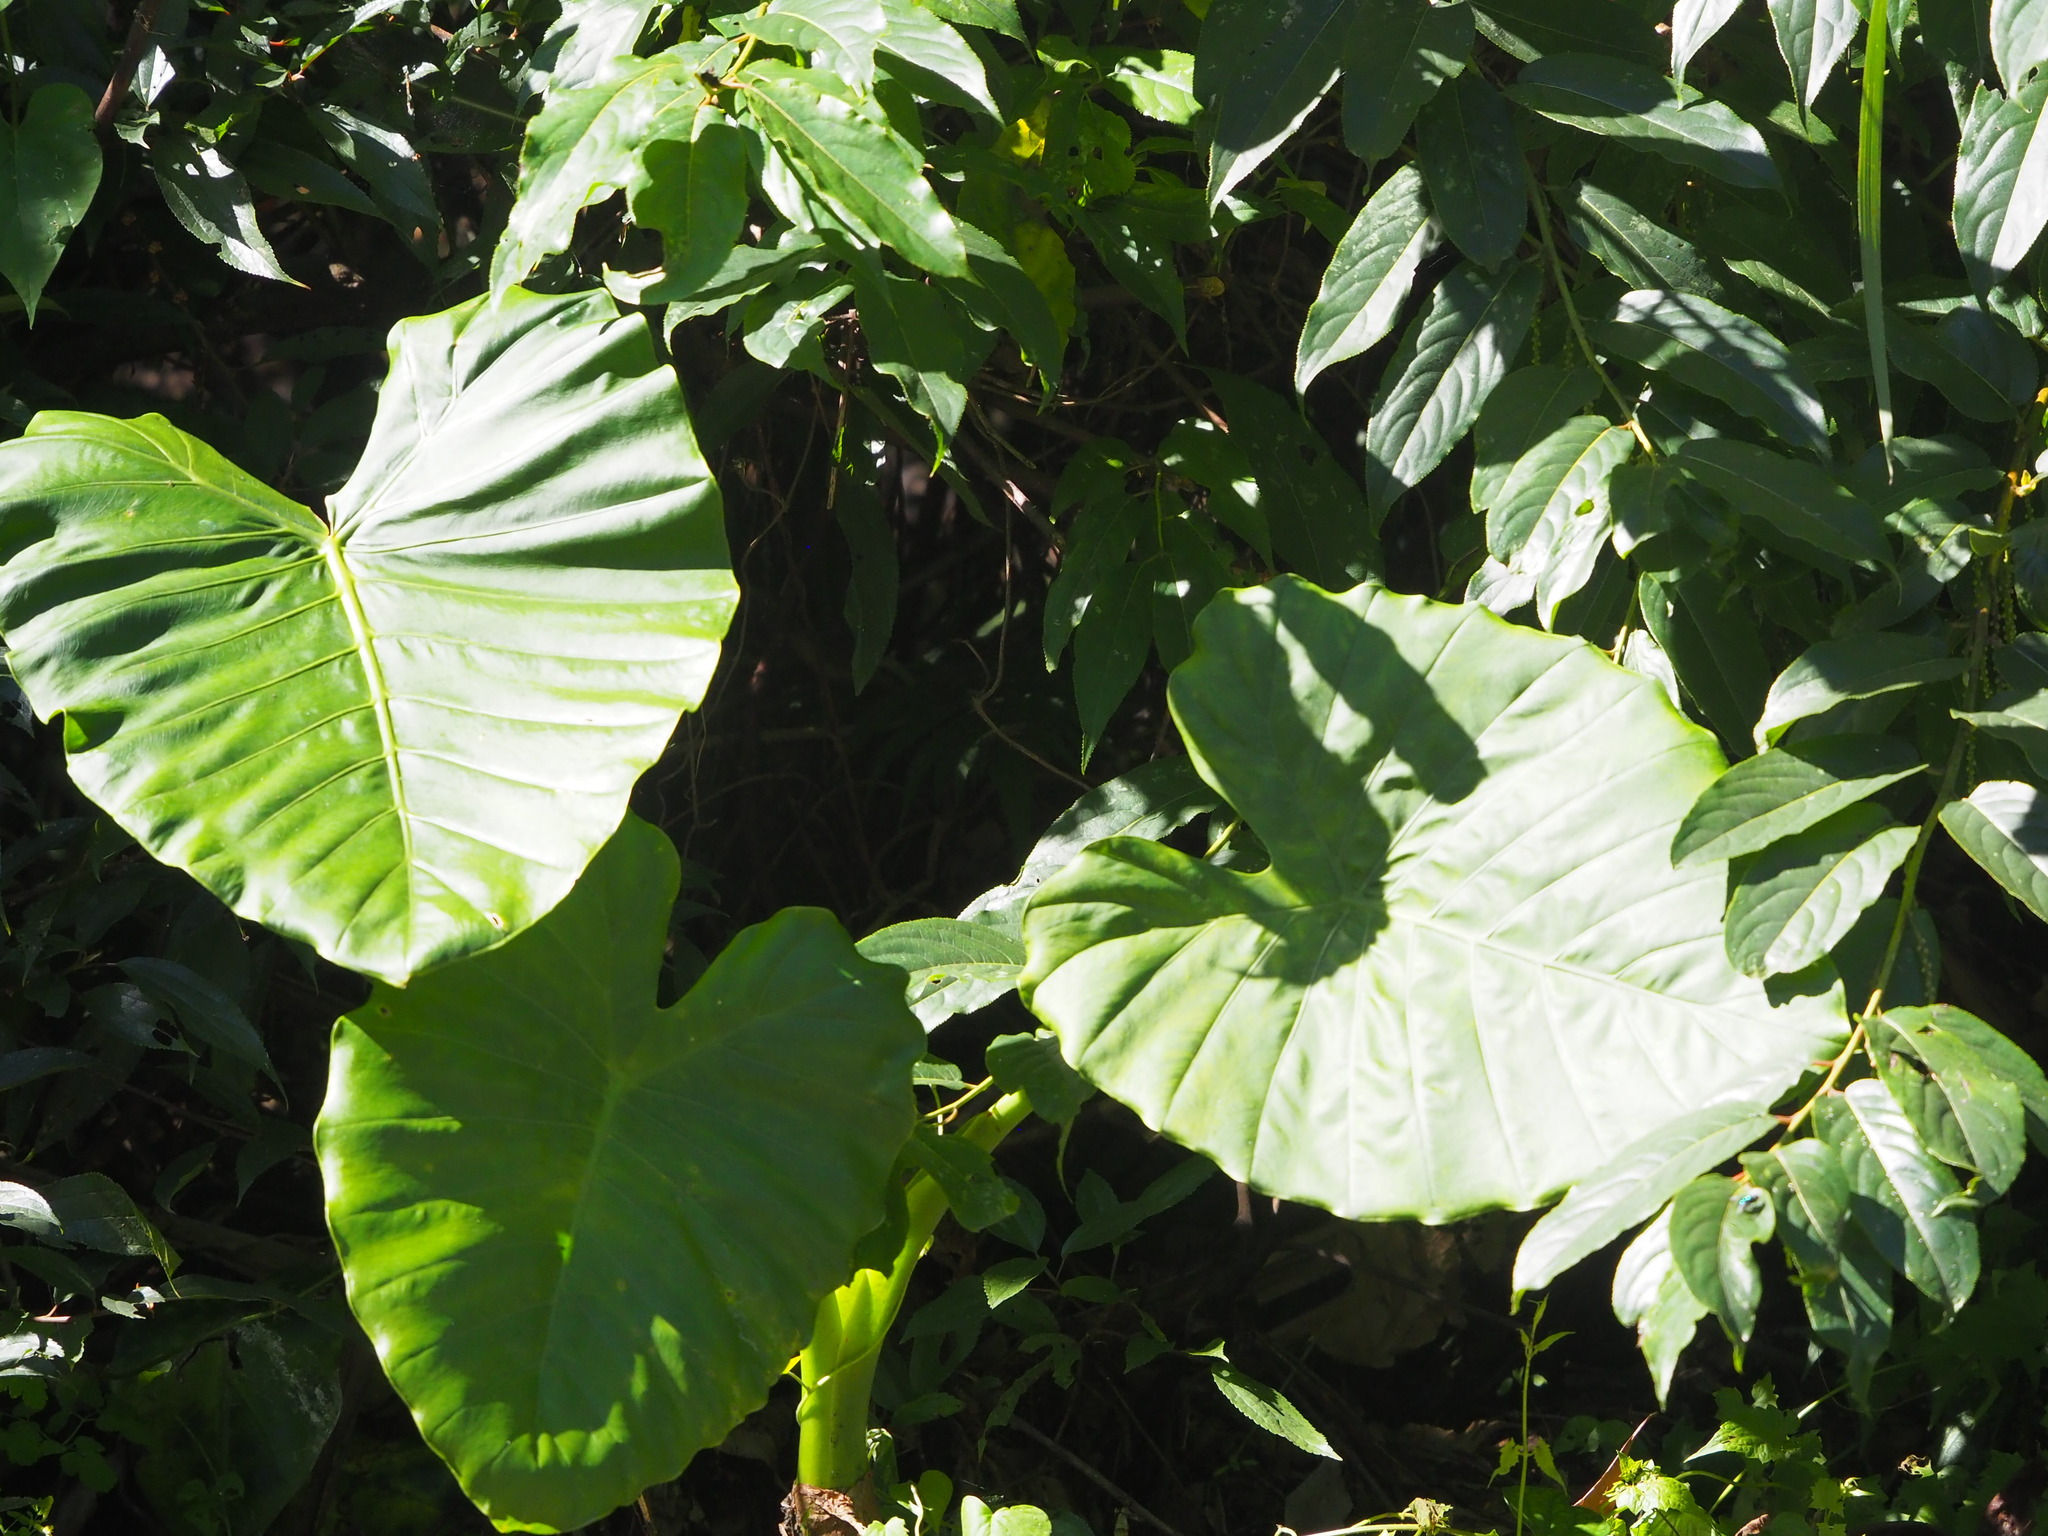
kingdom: Plantae
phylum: Tracheophyta
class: Liliopsida
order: Alismatales
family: Araceae
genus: Alocasia
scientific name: Alocasia odora
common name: Asian taro
